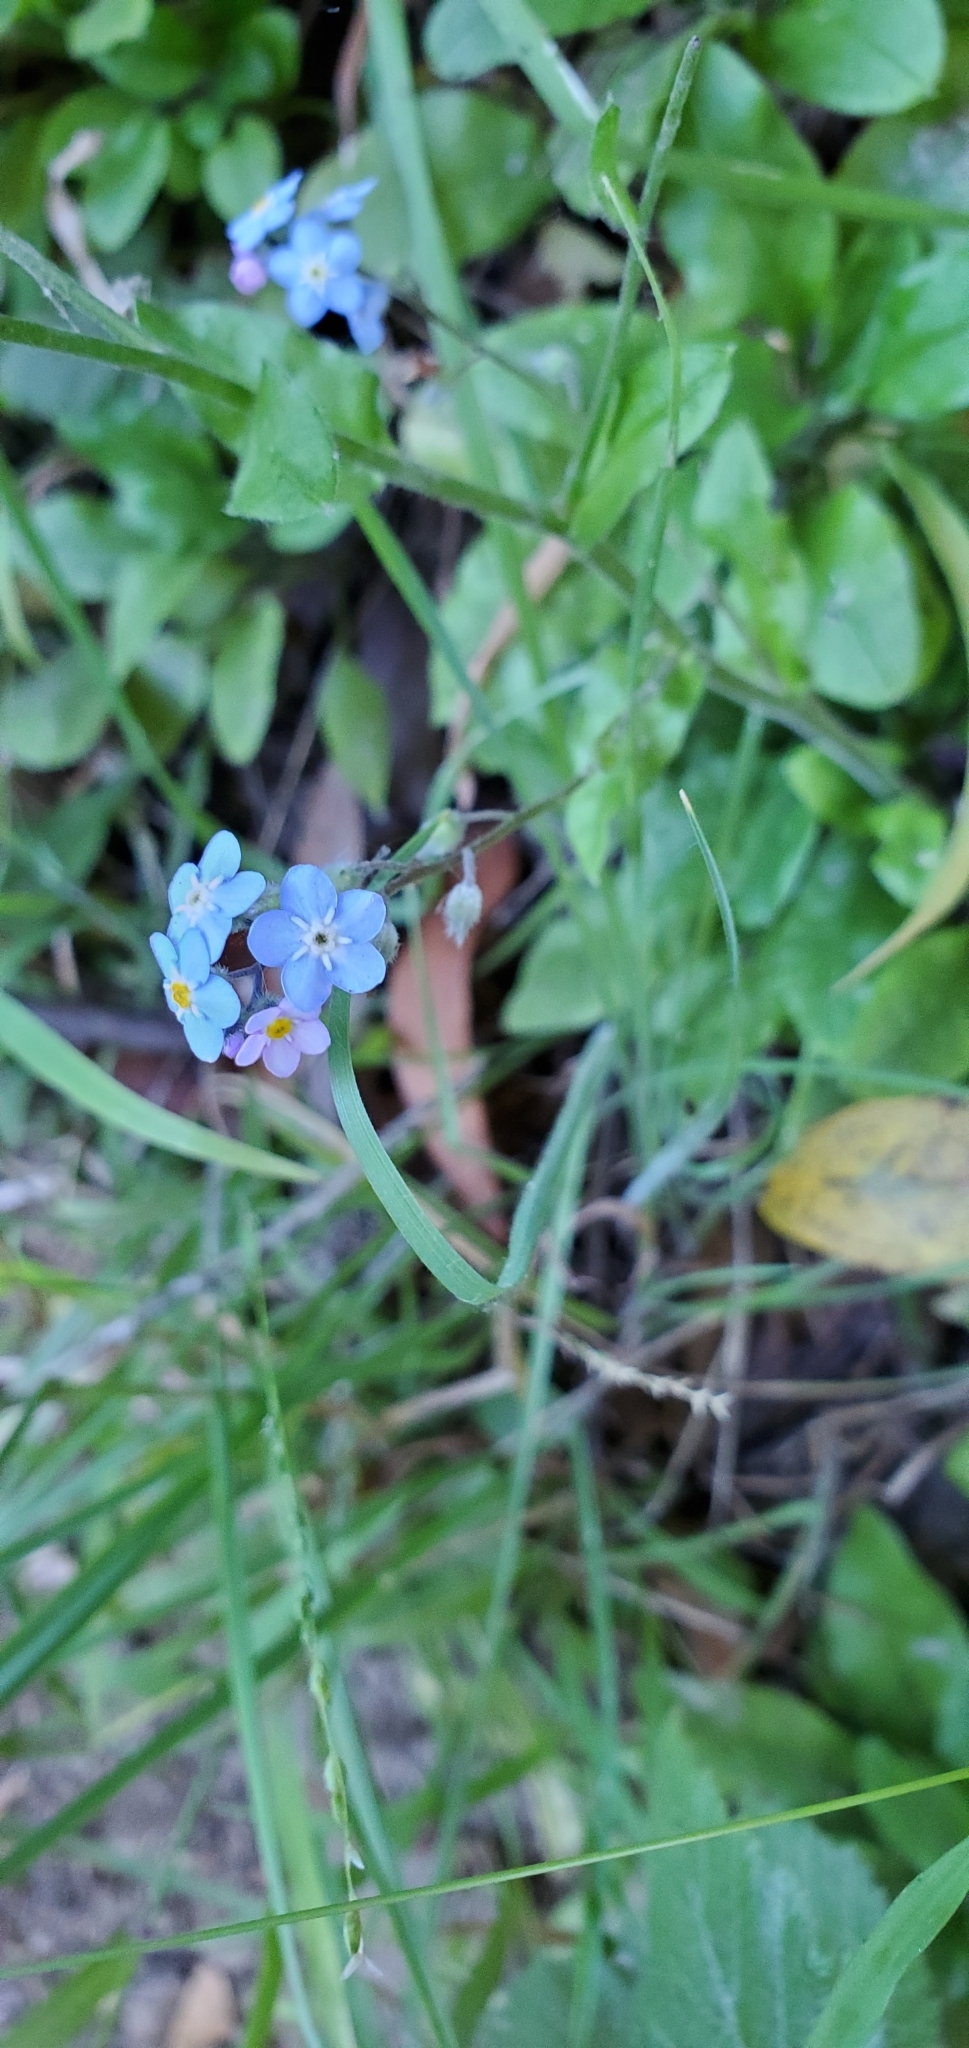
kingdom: Plantae
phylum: Tracheophyta
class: Magnoliopsida
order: Boraginales
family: Boraginaceae
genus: Myosotis
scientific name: Myosotis latifolia
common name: Broadleaf forget-me-not
